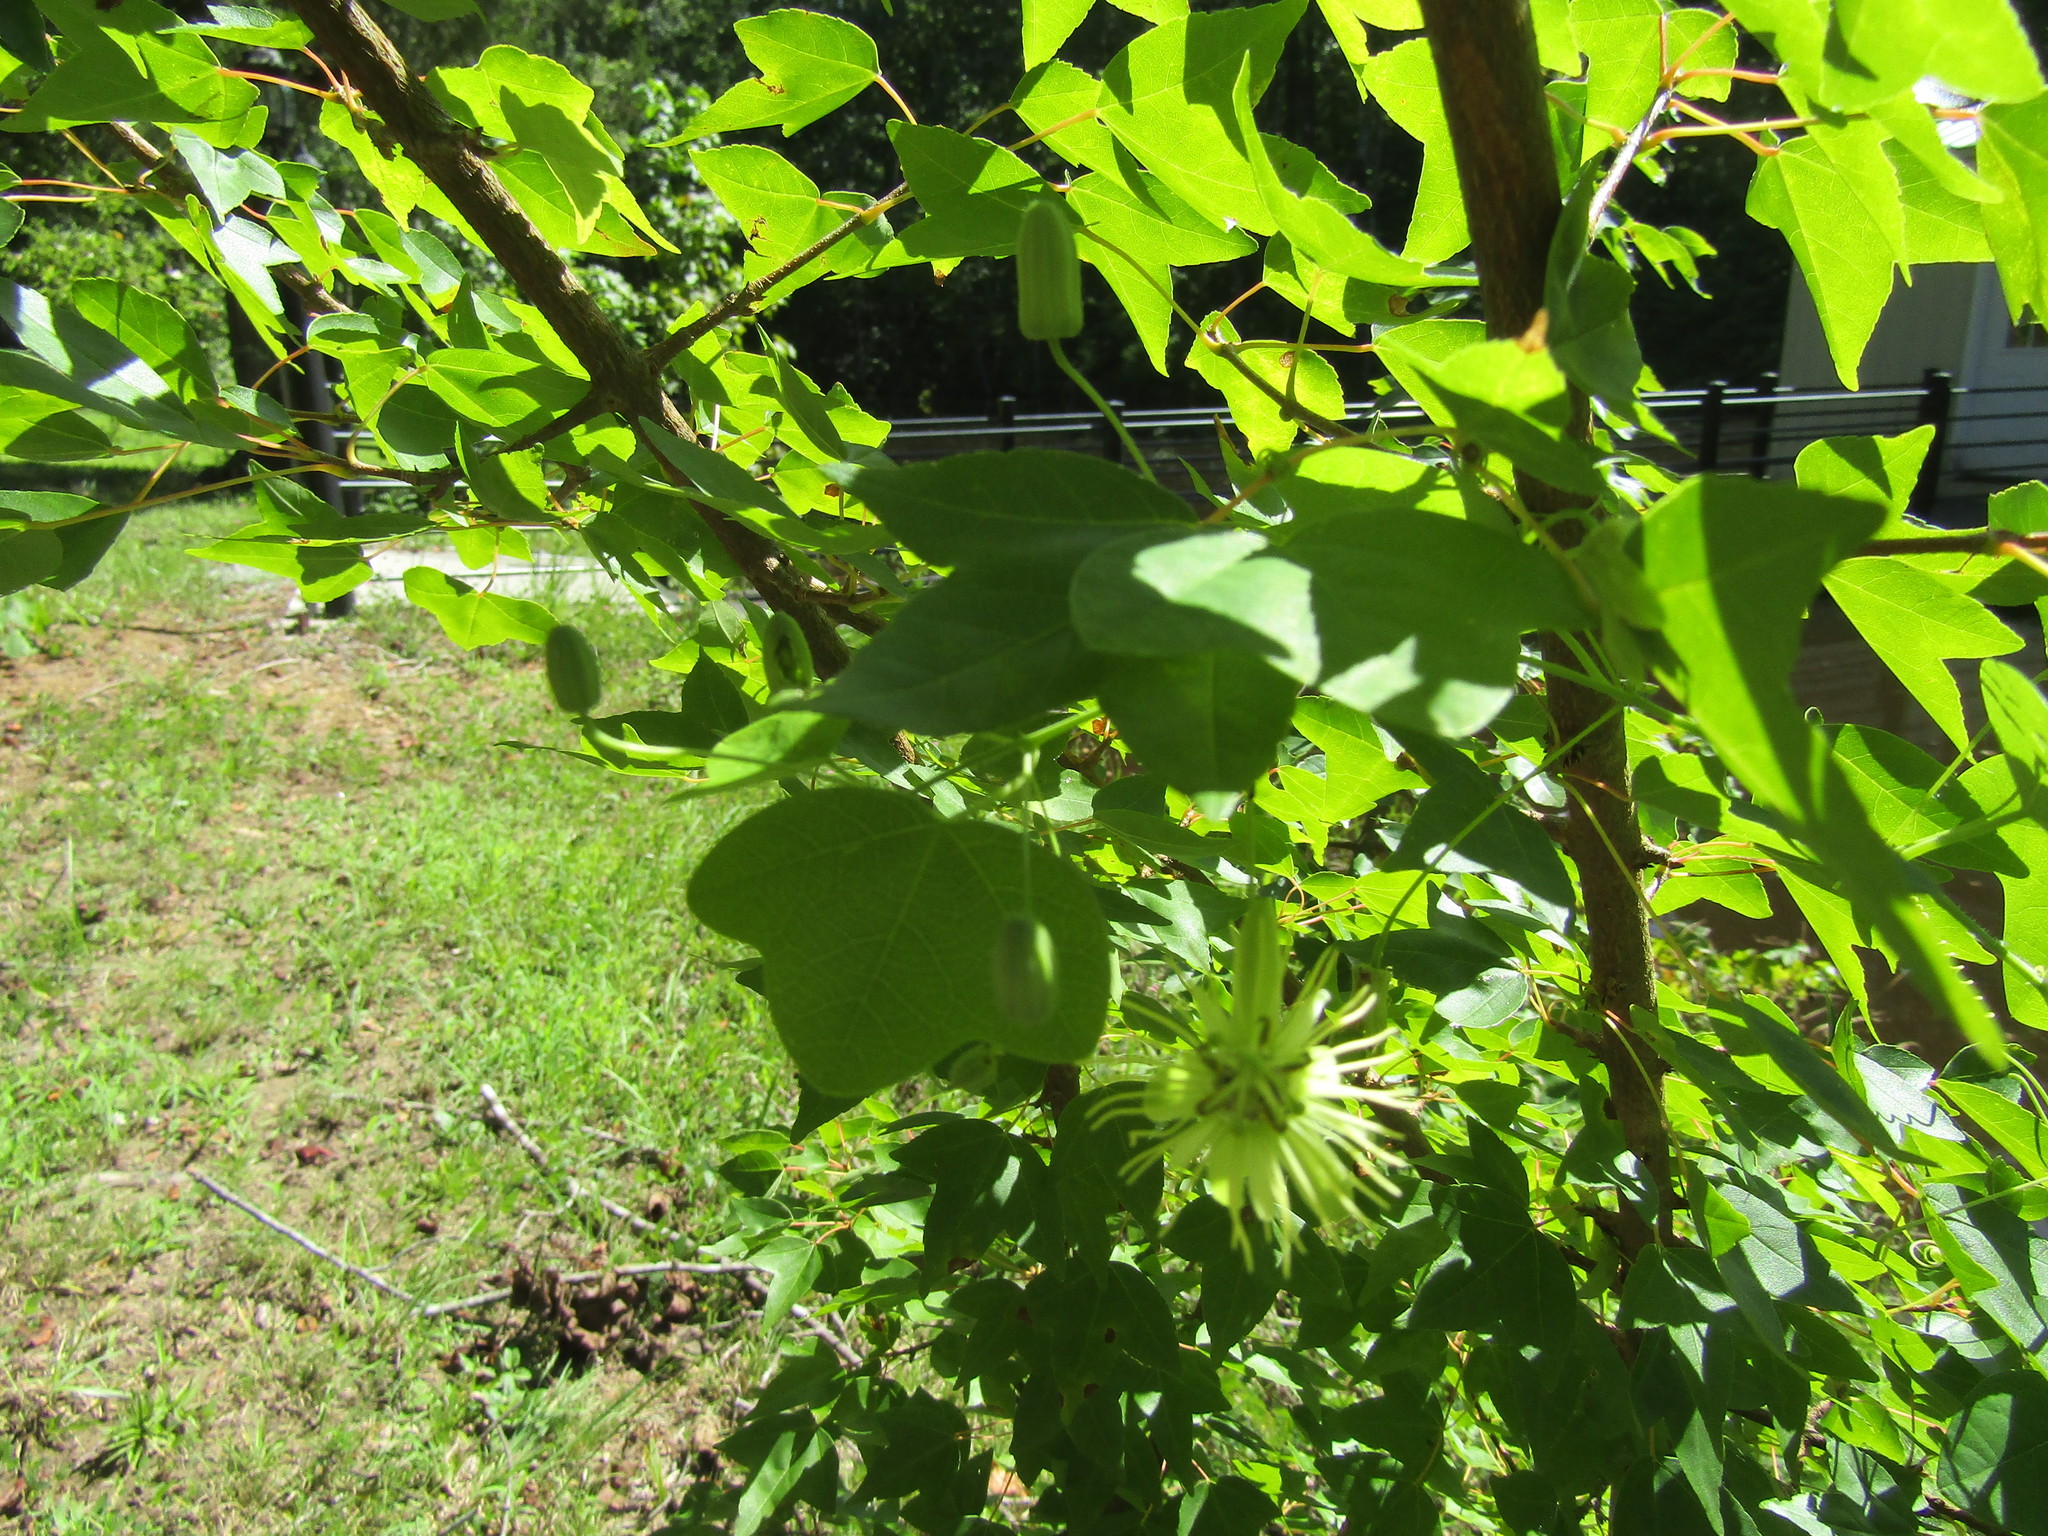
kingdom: Plantae
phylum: Tracheophyta
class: Magnoliopsida
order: Malpighiales
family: Passifloraceae
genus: Passiflora
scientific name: Passiflora lutea
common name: Yellow passionflower
